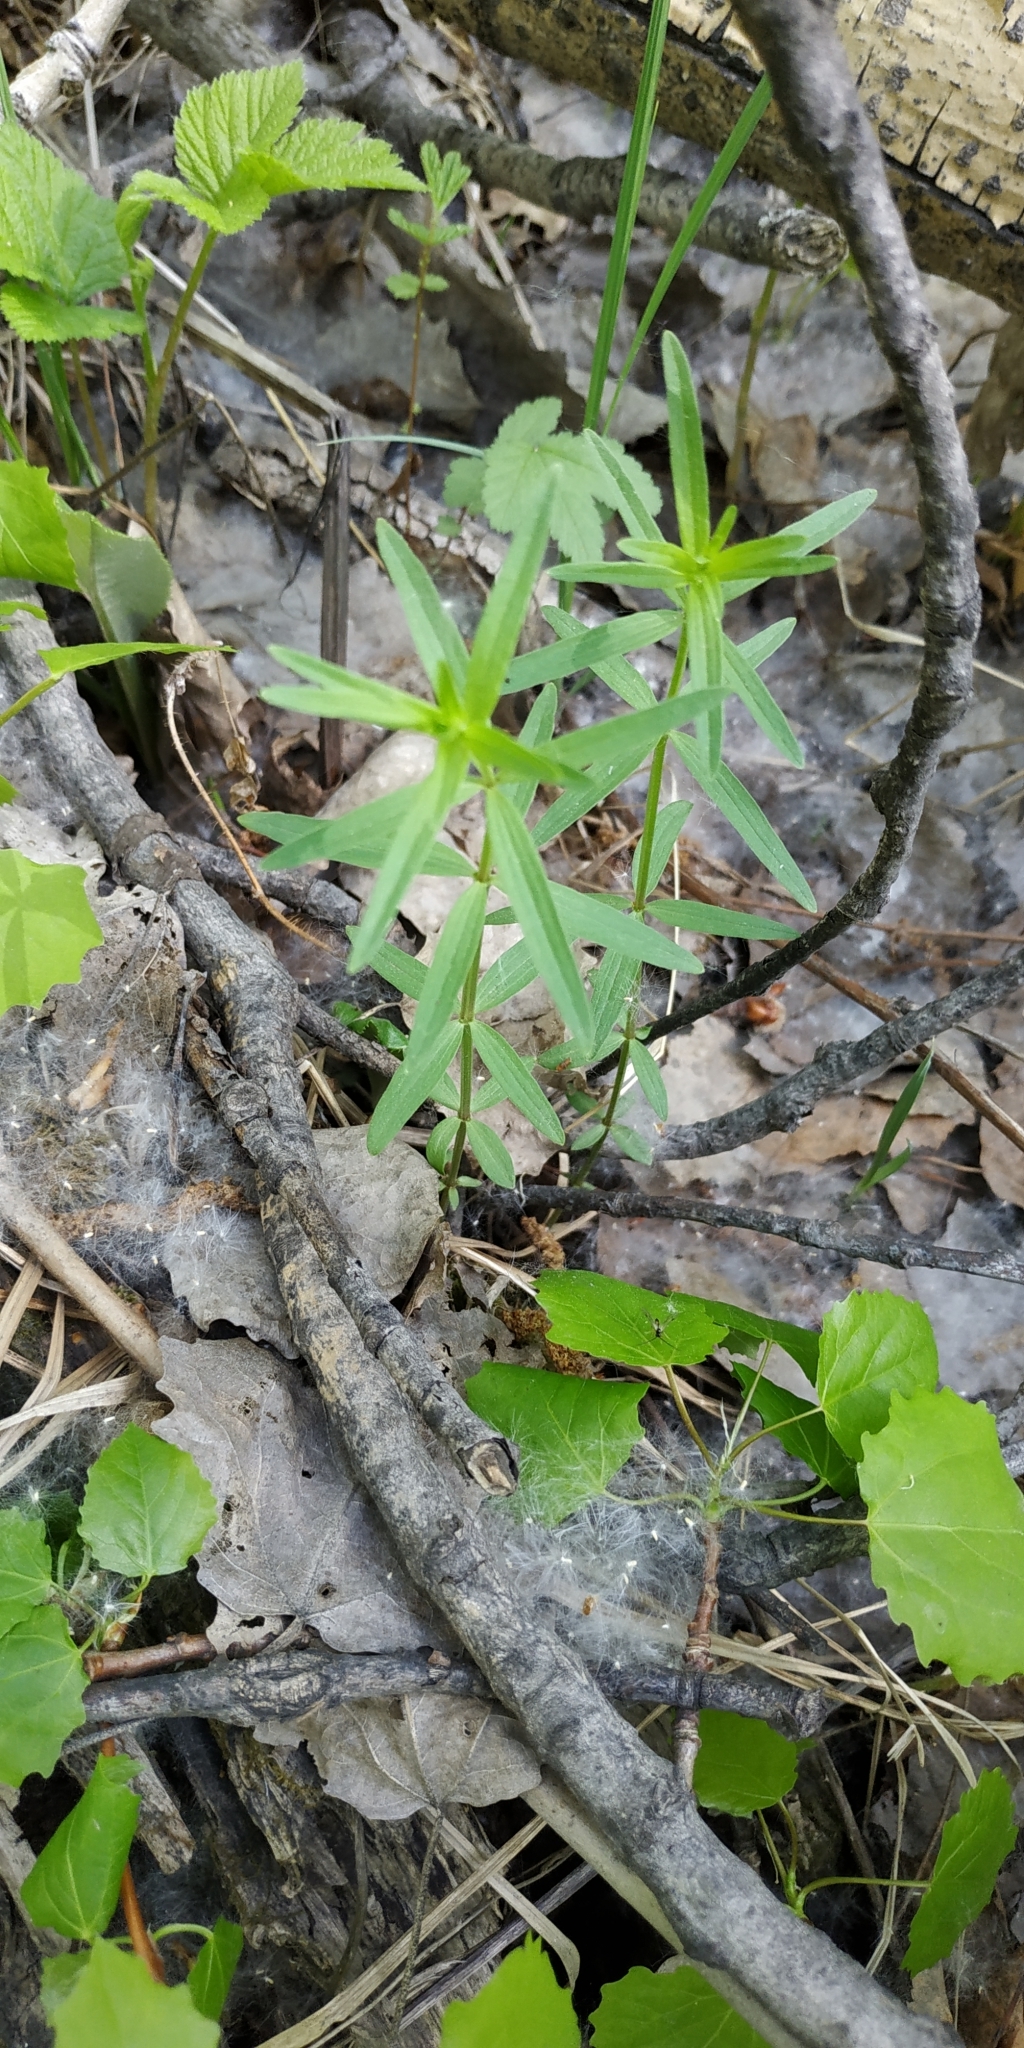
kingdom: Plantae
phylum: Tracheophyta
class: Magnoliopsida
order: Gentianales
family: Rubiaceae
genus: Galium
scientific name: Galium boreale
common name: Northern bedstraw
